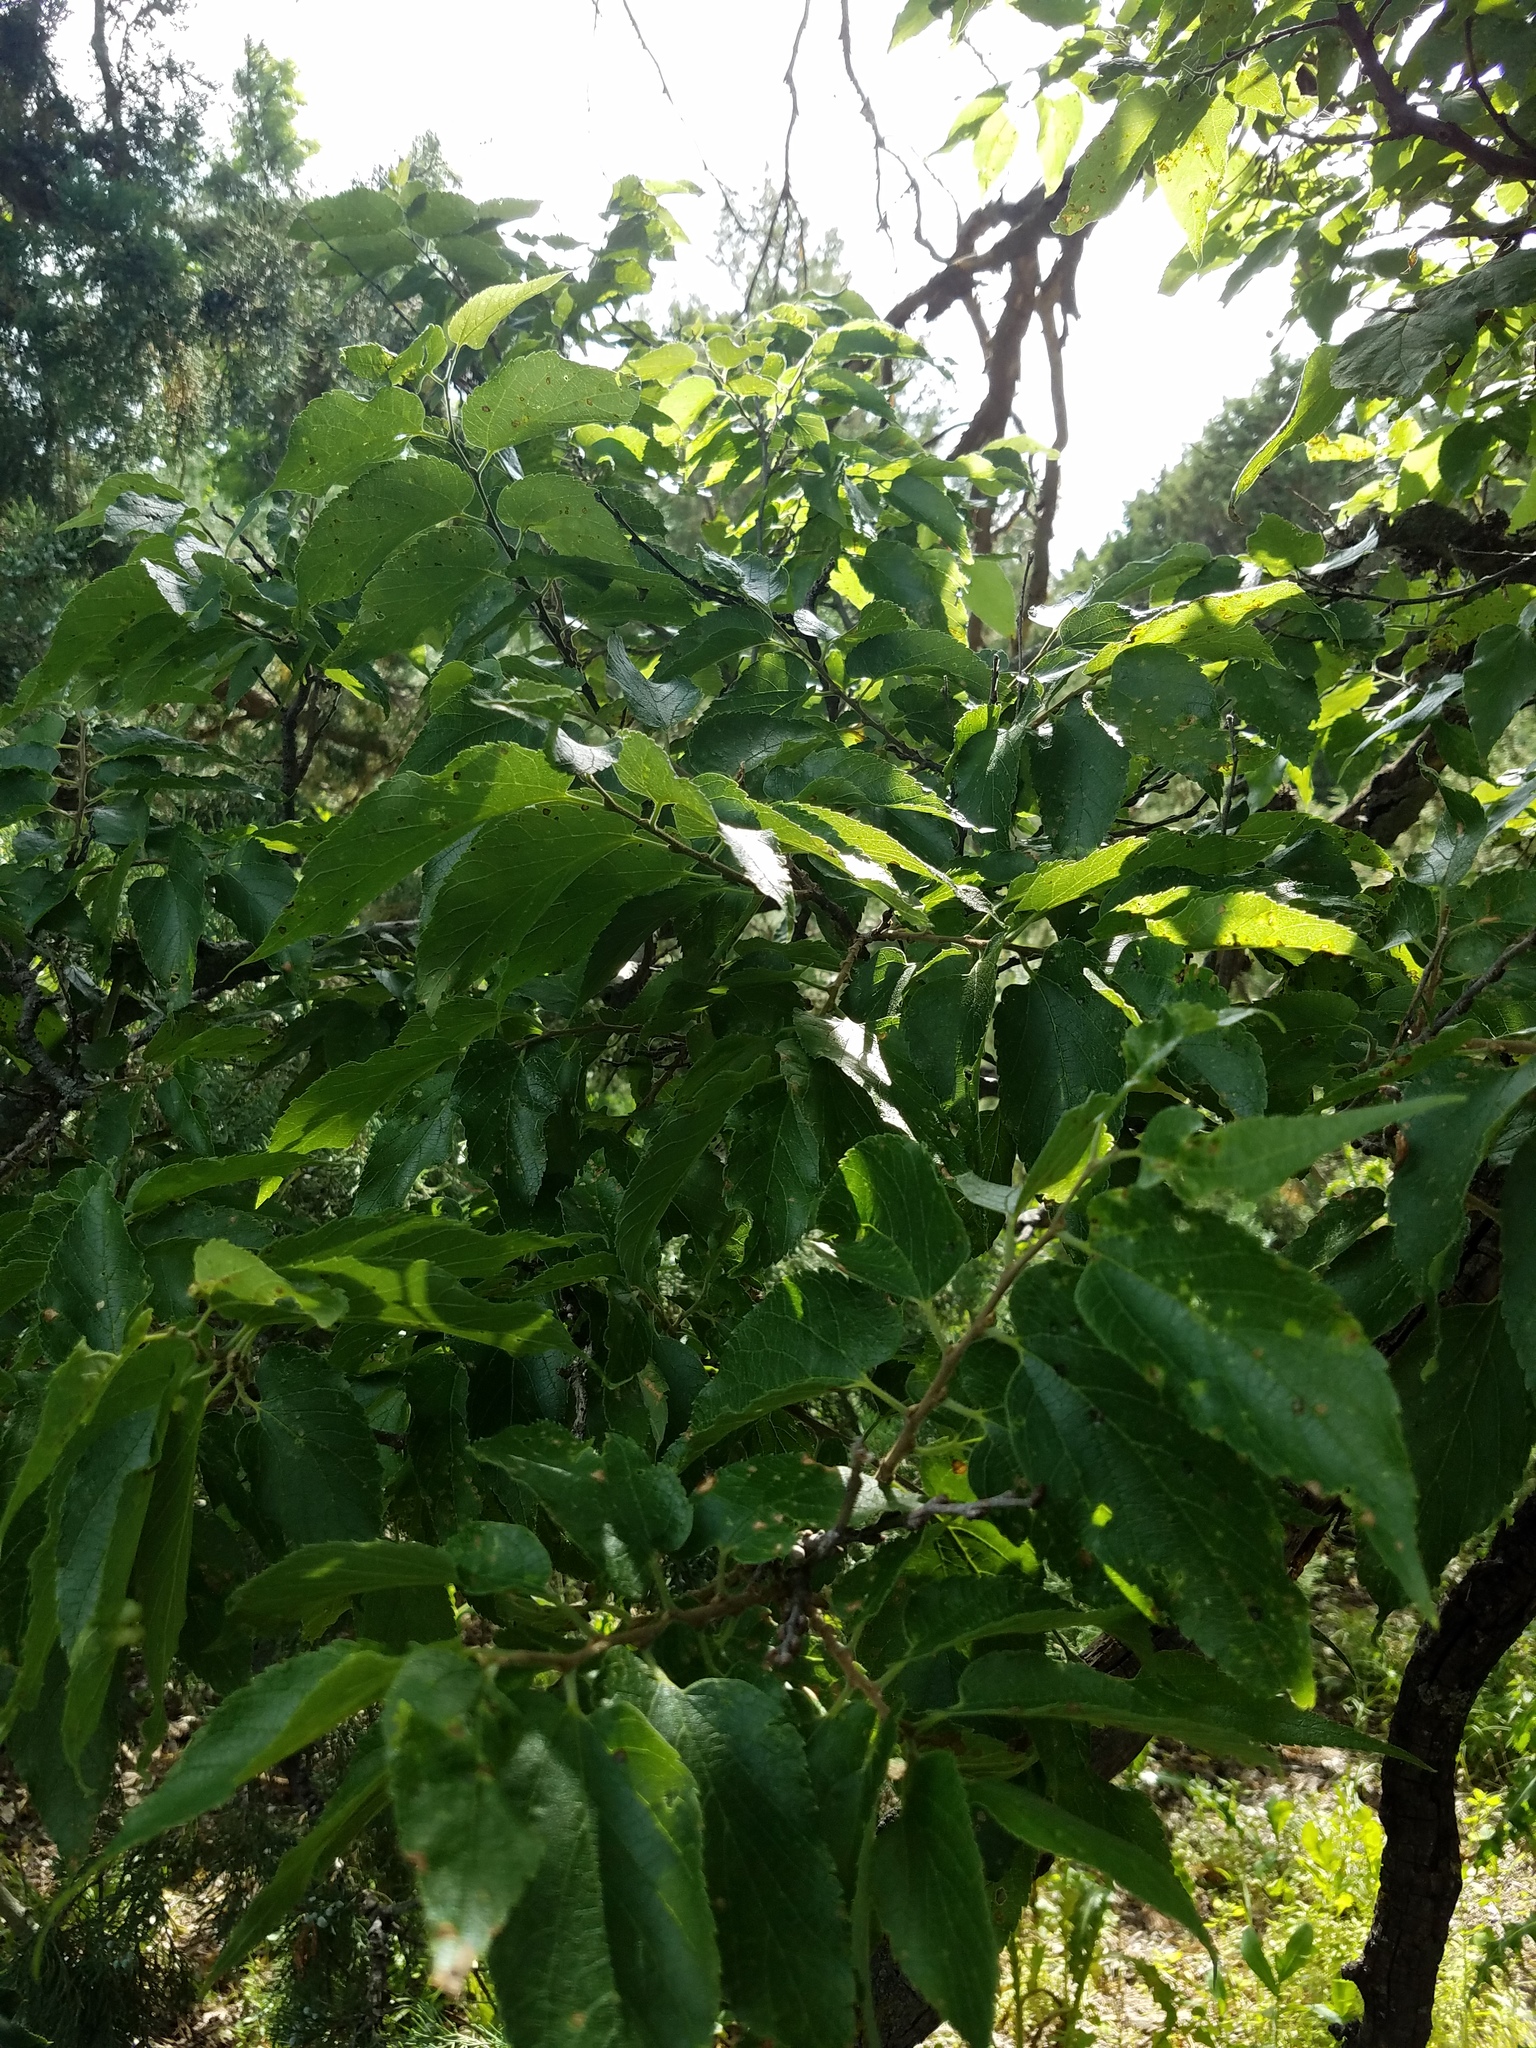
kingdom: Plantae
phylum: Tracheophyta
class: Magnoliopsida
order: Rosales
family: Cannabaceae
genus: Celtis
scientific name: Celtis occidentalis
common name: Common hackberry
